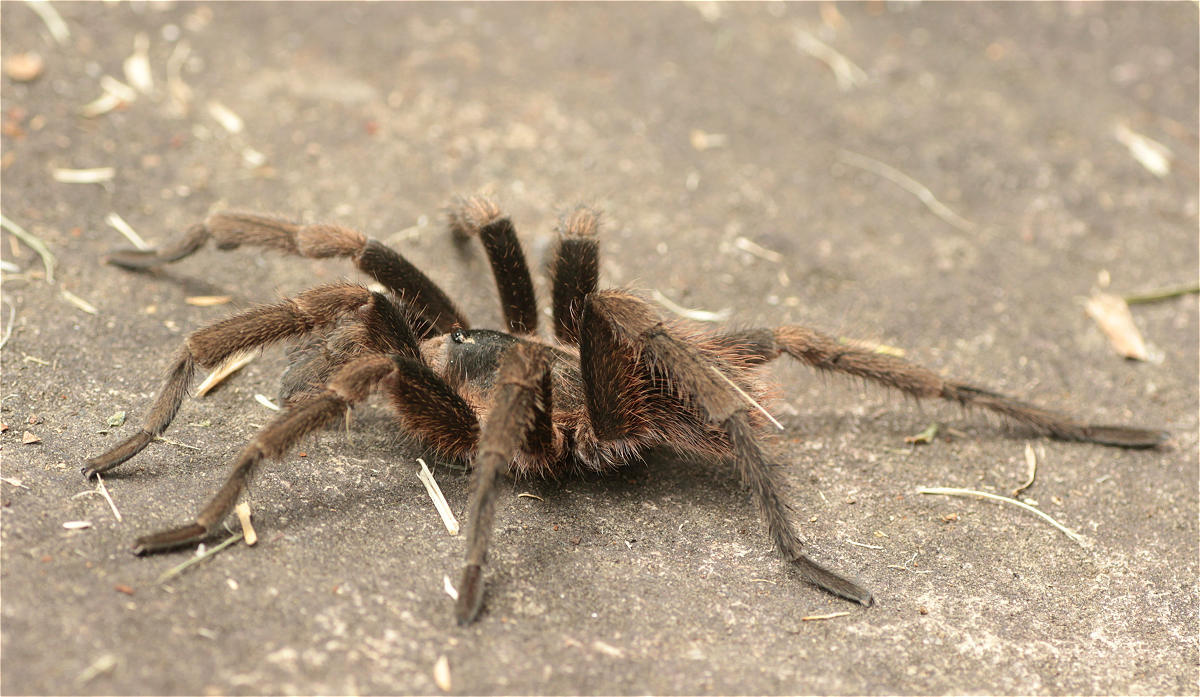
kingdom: Animalia
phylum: Arthropoda
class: Arachnida
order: Araneae
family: Theraphosidae
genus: Cyclosternum
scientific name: Cyclosternum schmardae
